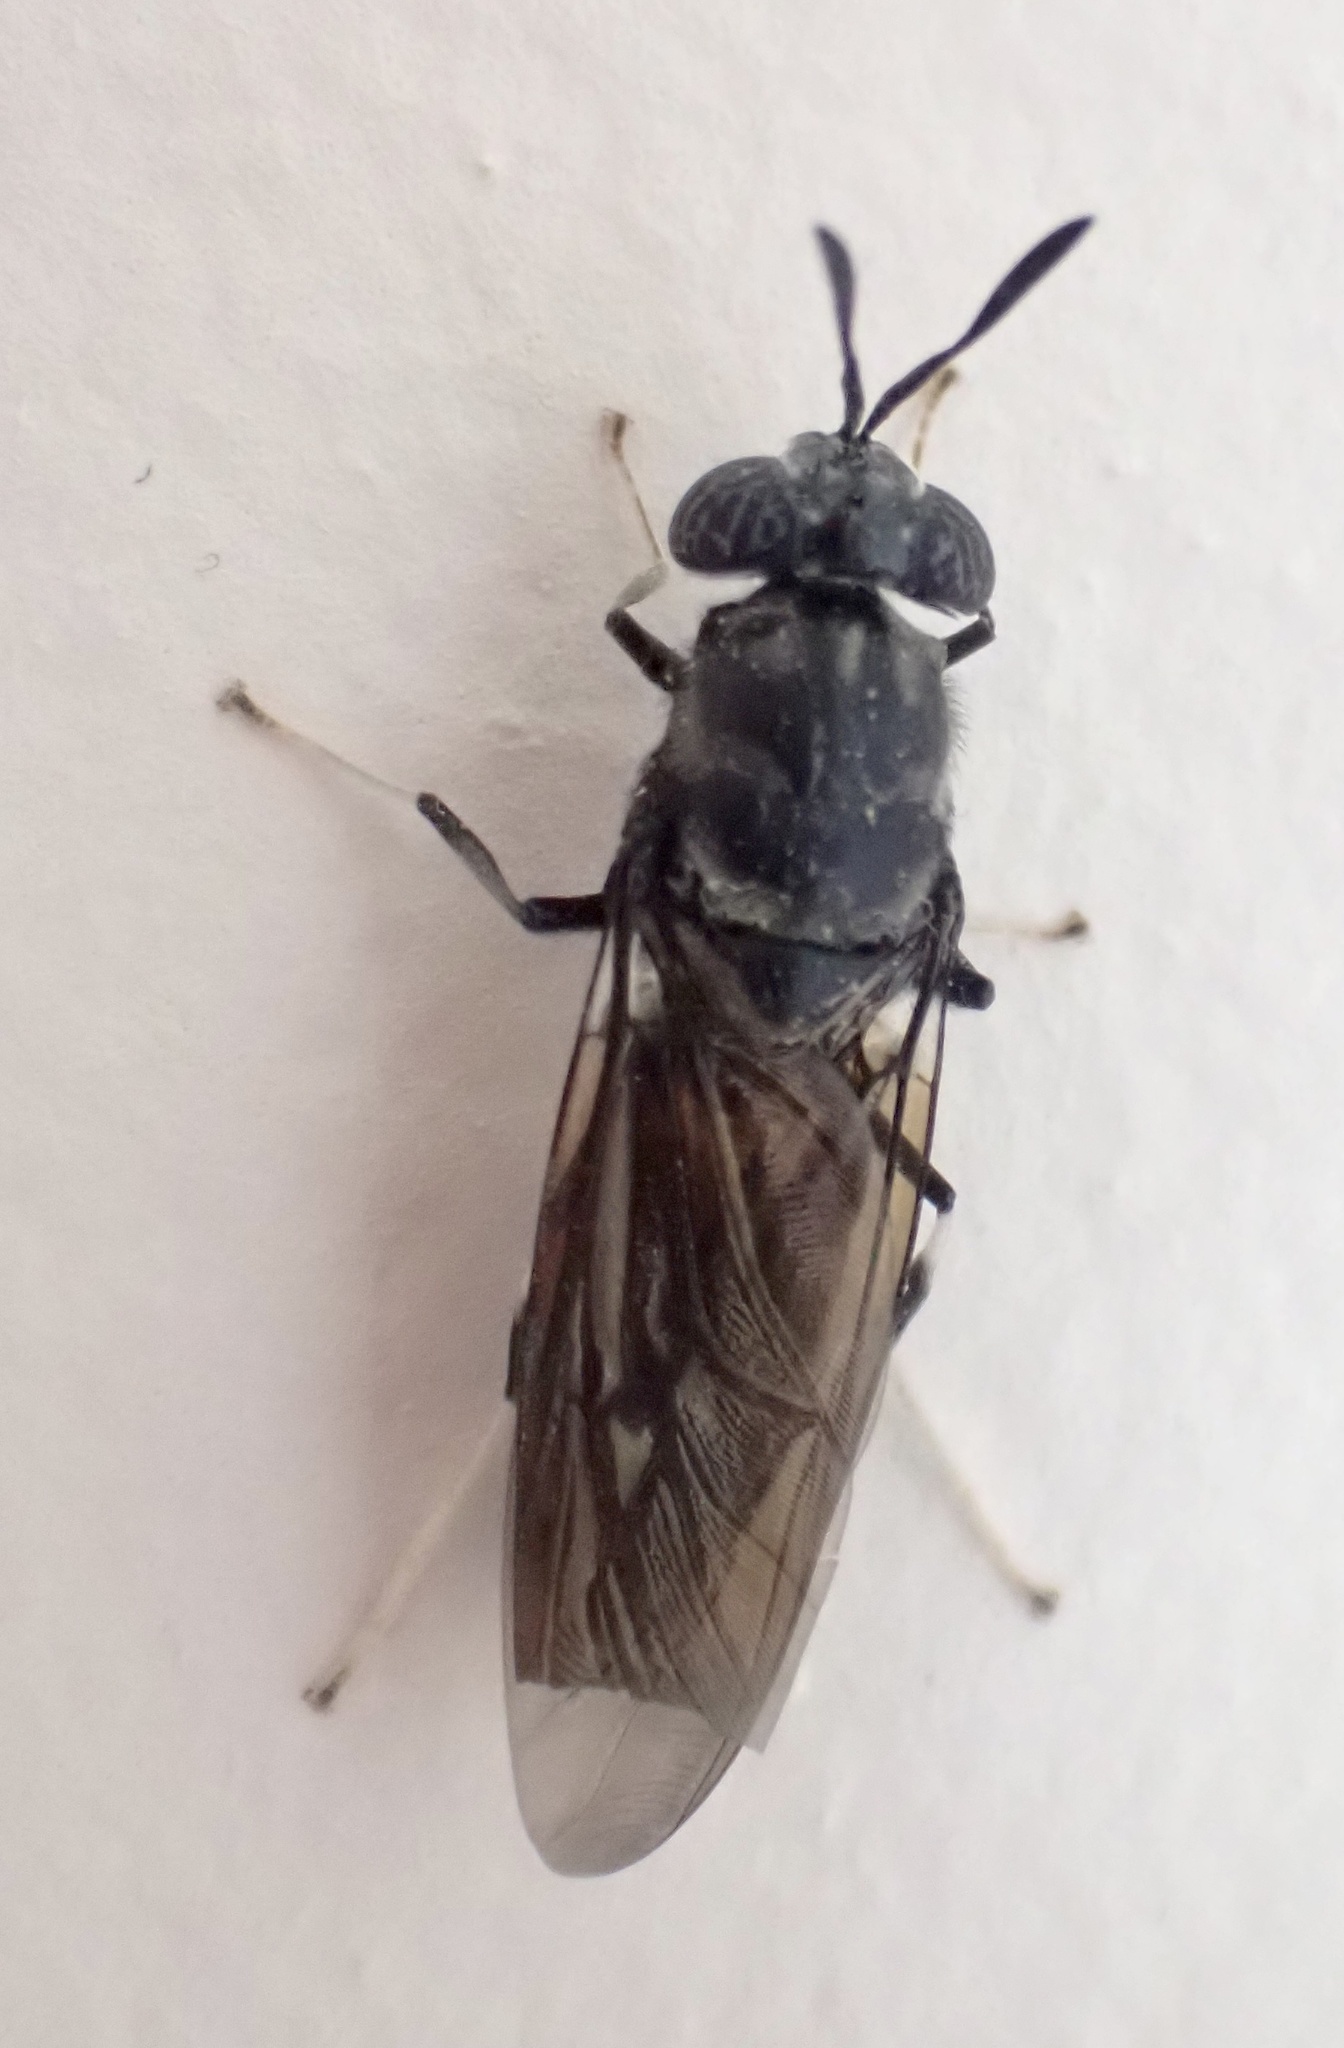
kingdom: Animalia
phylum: Arthropoda
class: Insecta
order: Diptera
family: Stratiomyidae
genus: Hermetia
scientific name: Hermetia illucens
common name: Black soldier fly
